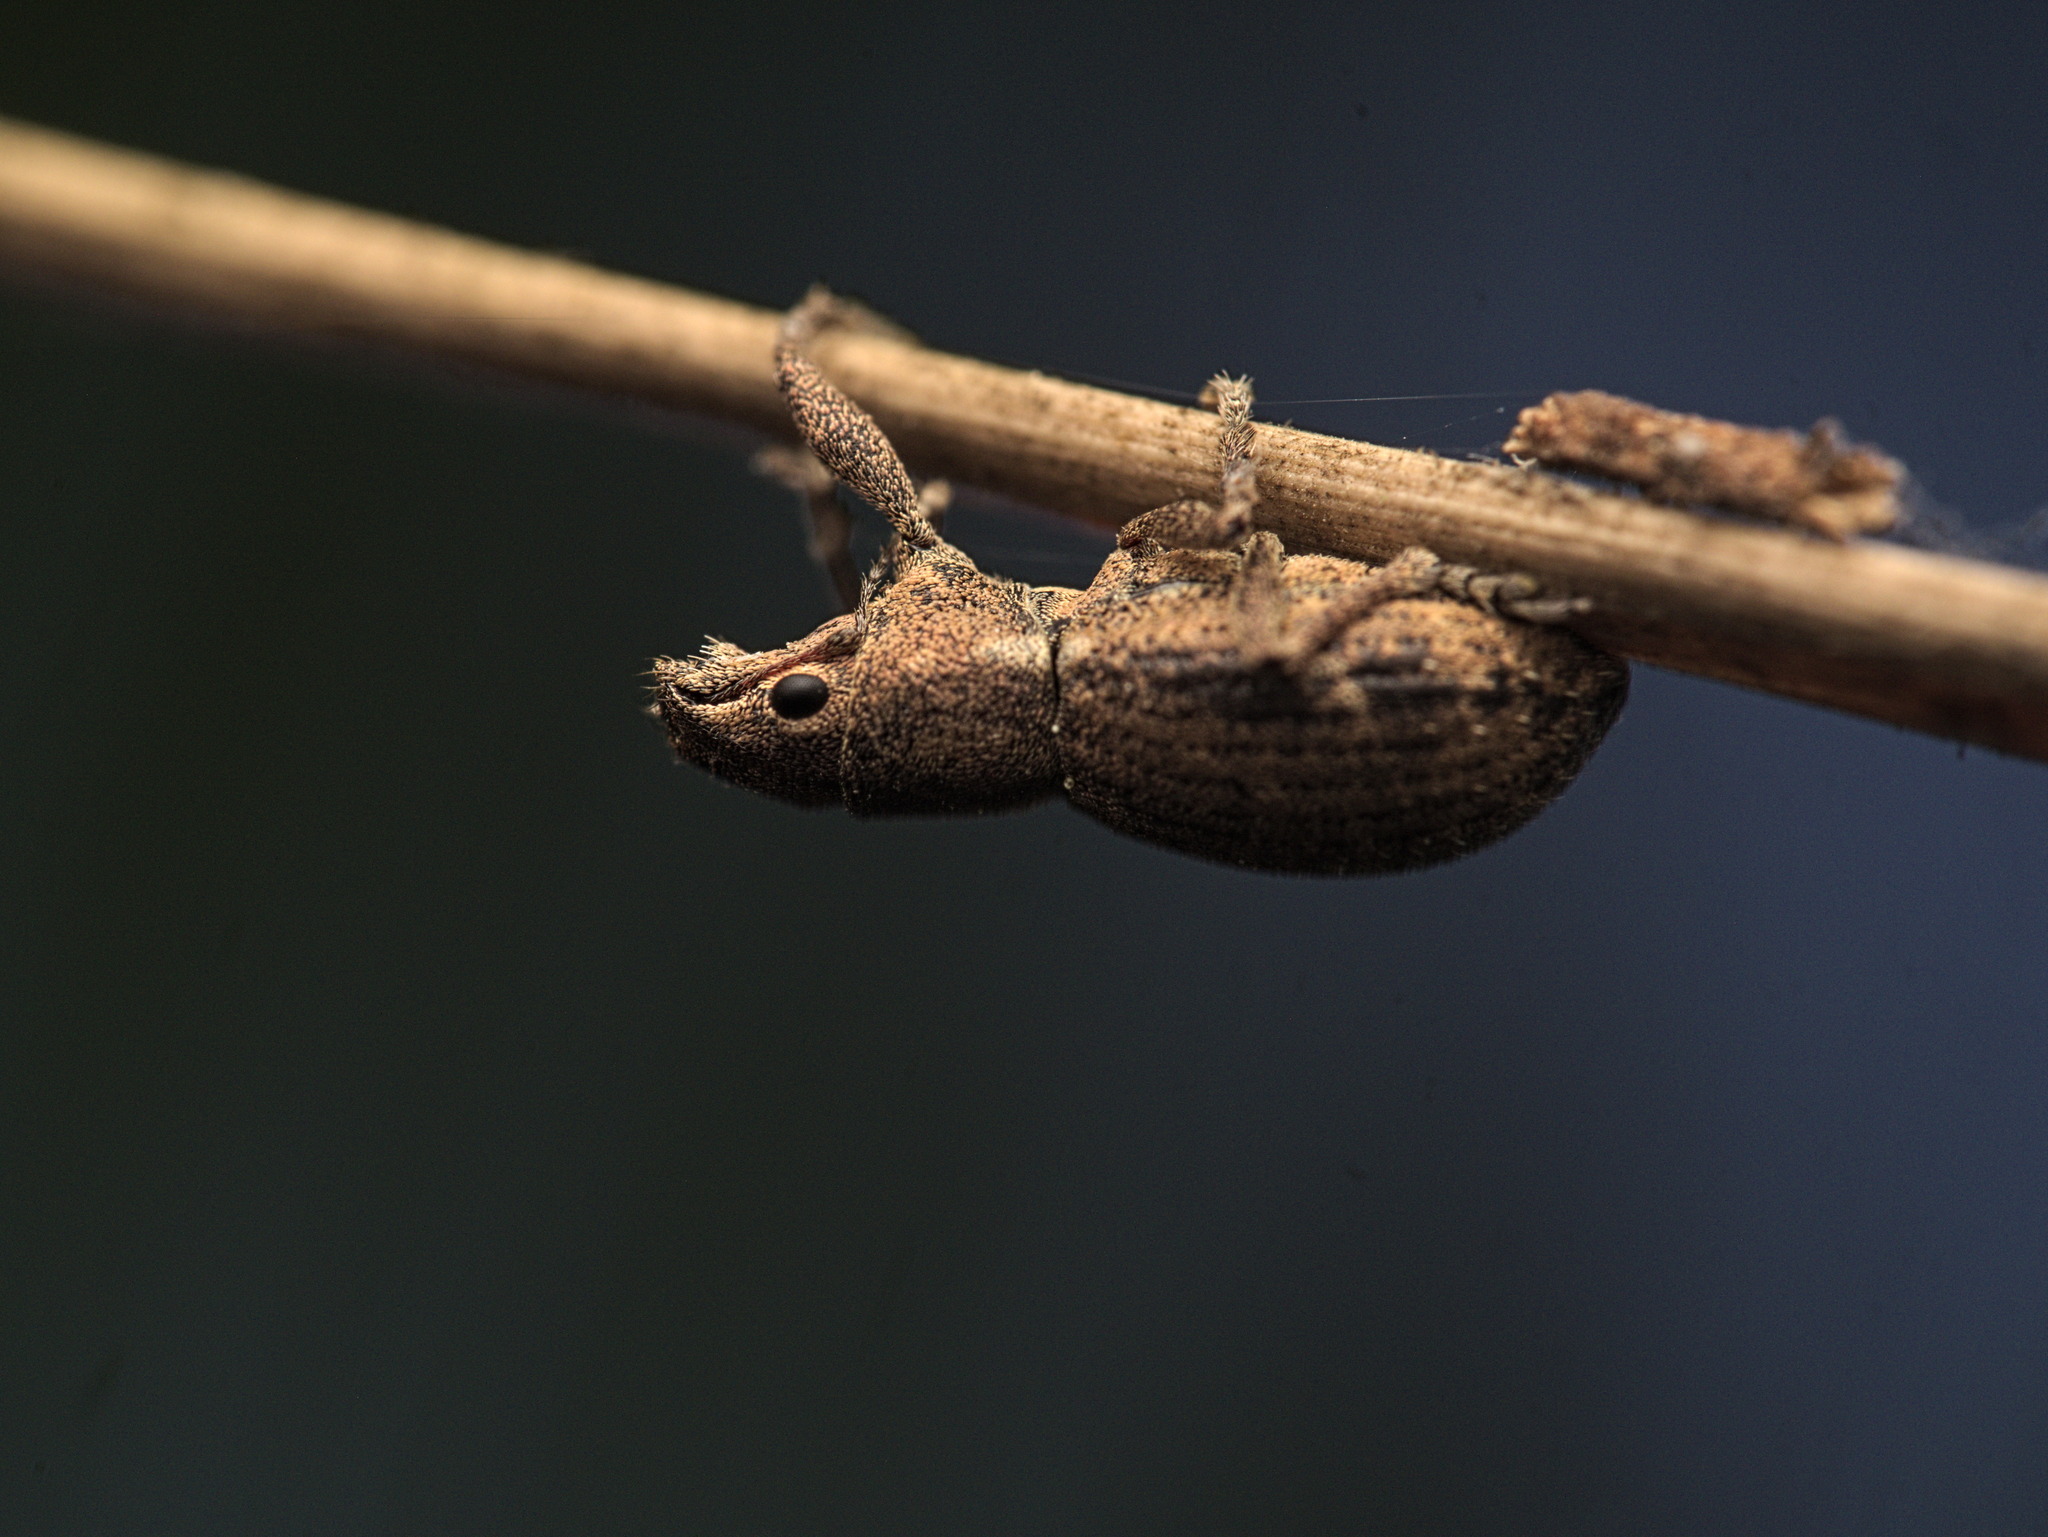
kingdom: Animalia
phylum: Arthropoda
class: Insecta
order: Coleoptera
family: Curculionidae
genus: Naupactus
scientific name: Naupactus cervinus
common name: Fuller rose beetle
